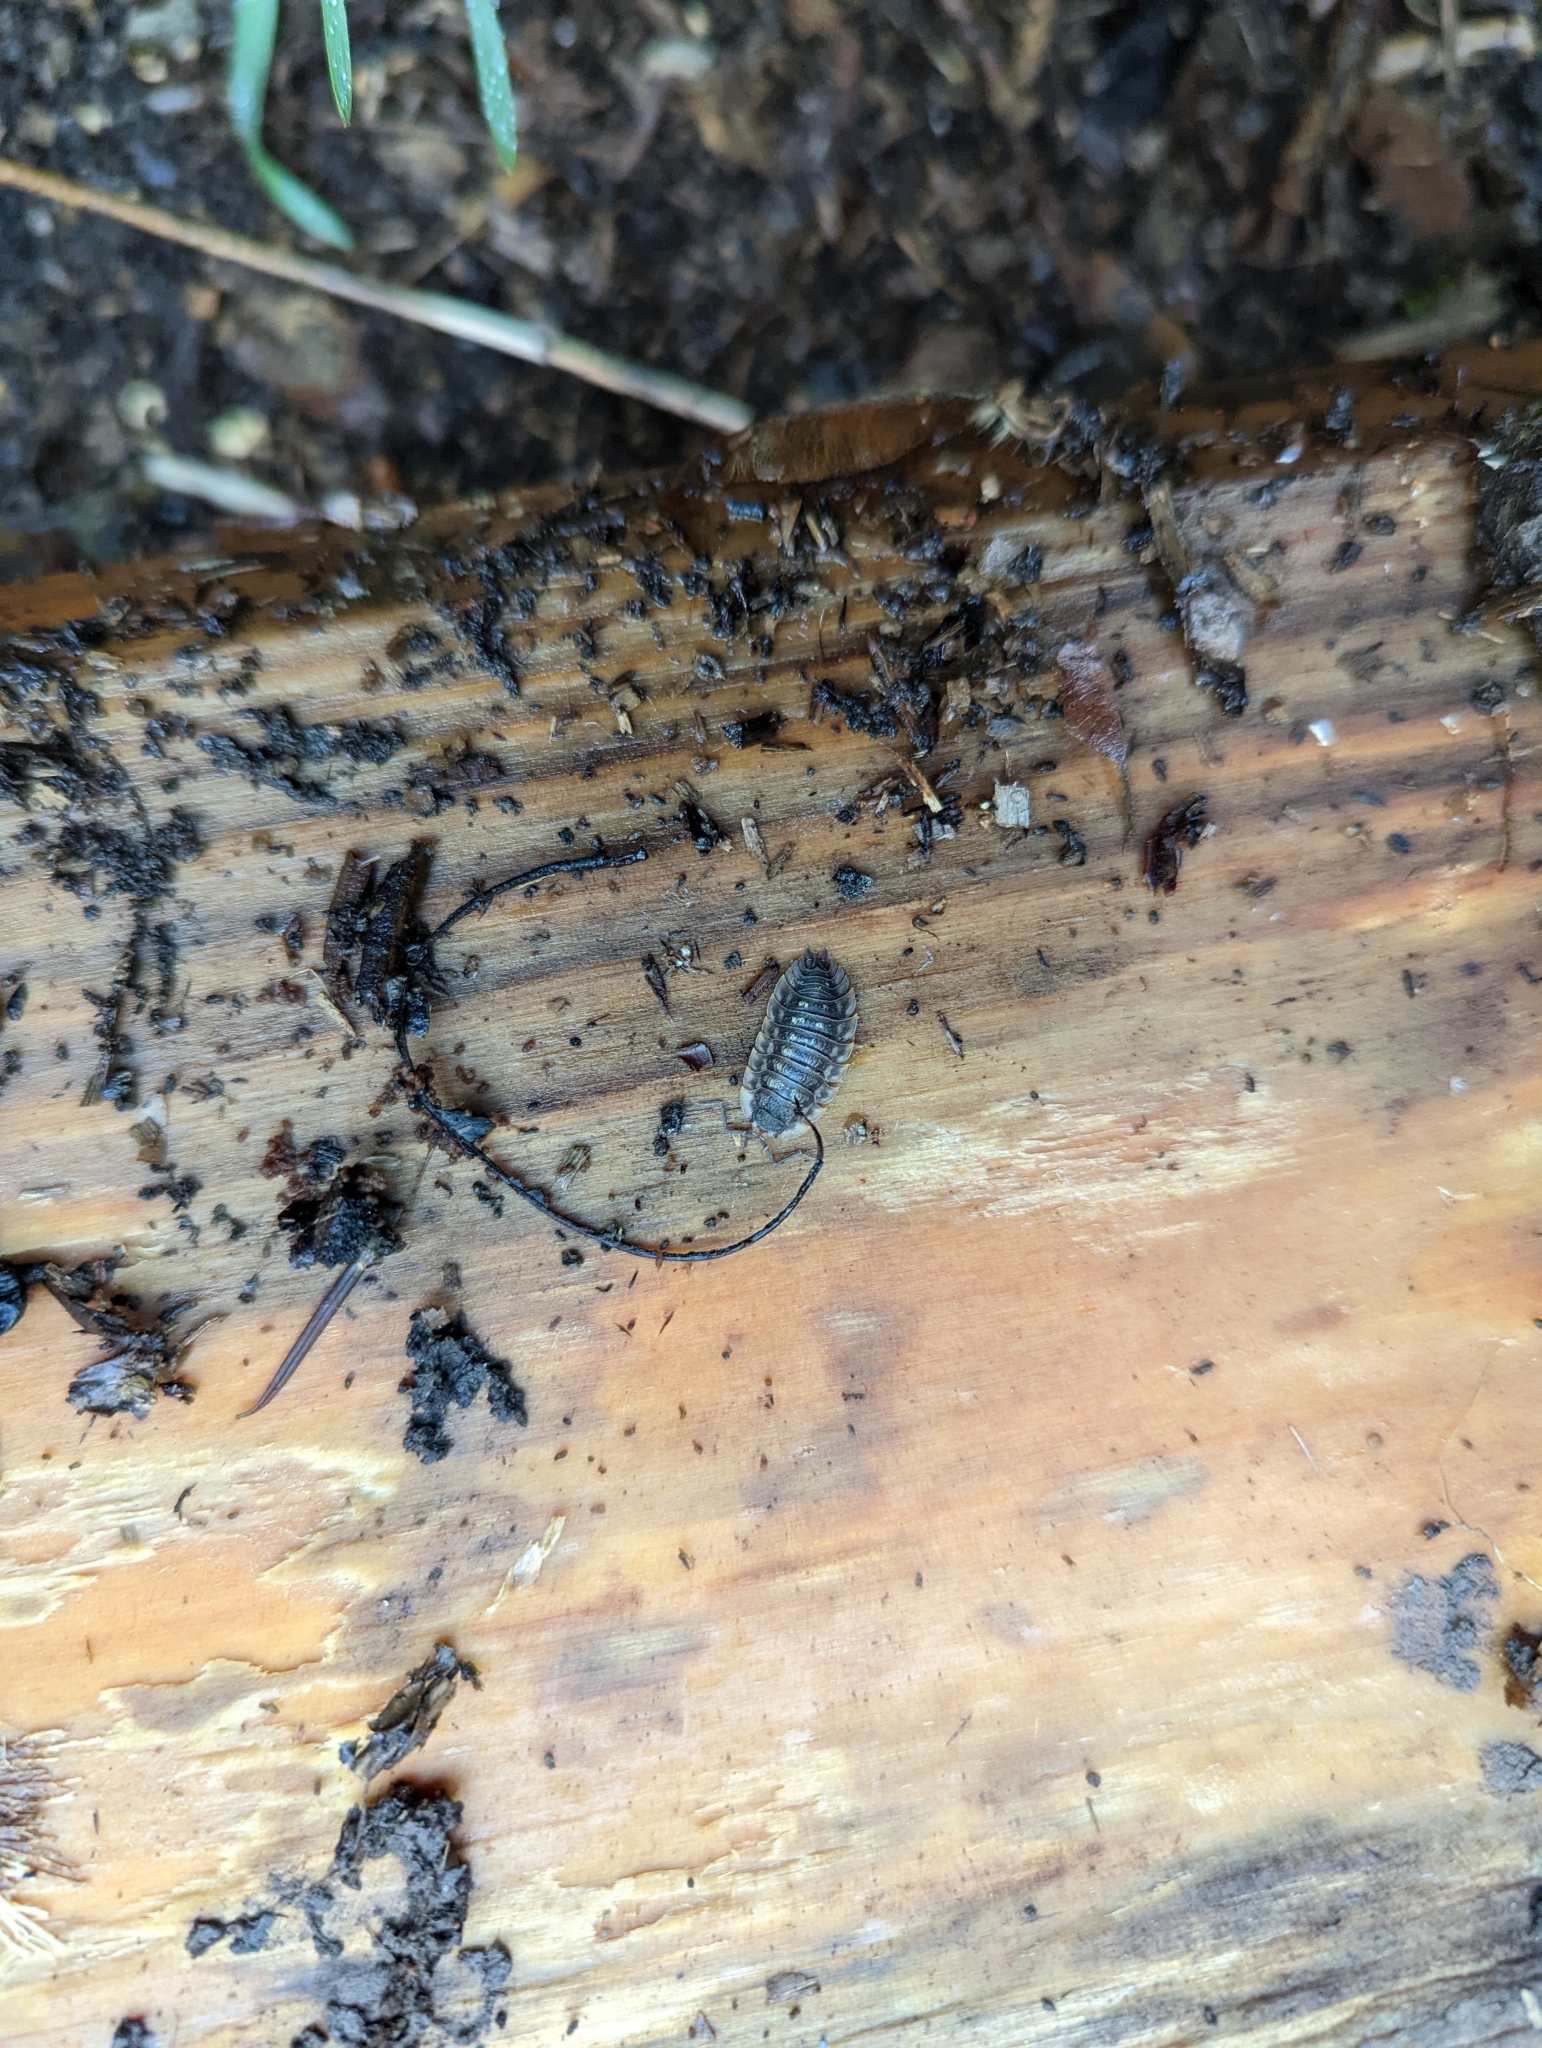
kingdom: Animalia
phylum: Arthropoda
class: Malacostraca
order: Isopoda
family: Oniscidae
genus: Oniscus
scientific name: Oniscus asellus
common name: Common shiny woodlouse
